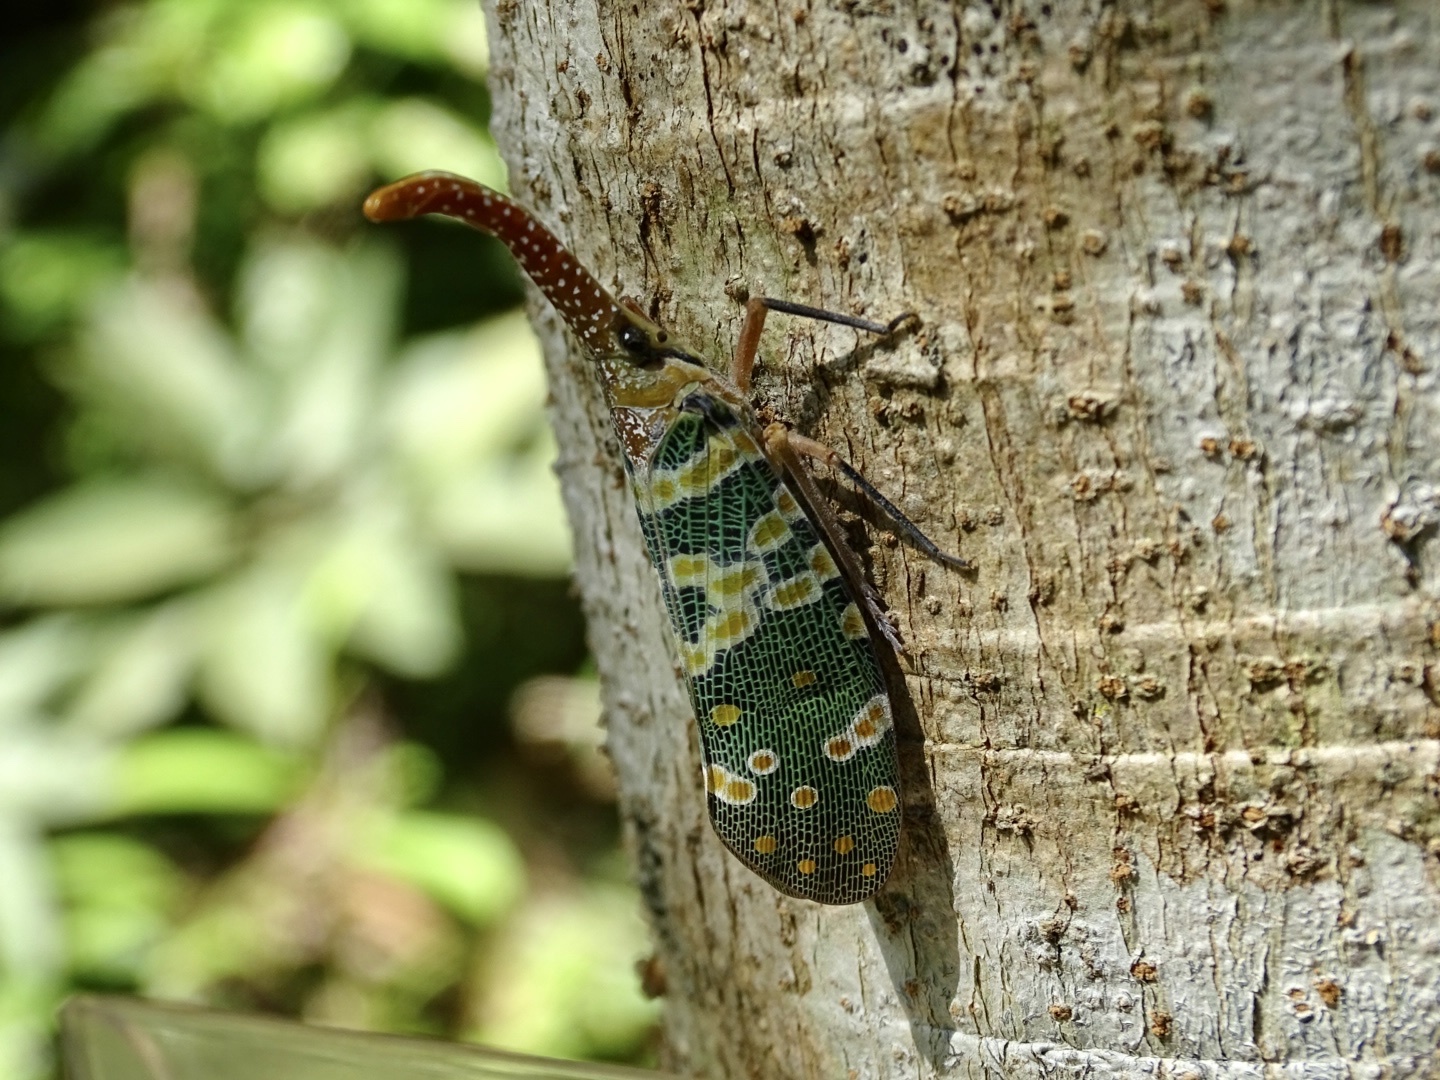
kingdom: Animalia
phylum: Arthropoda
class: Insecta
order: Hemiptera
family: Fulgoridae
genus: Pyrops
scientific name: Pyrops candelaria
